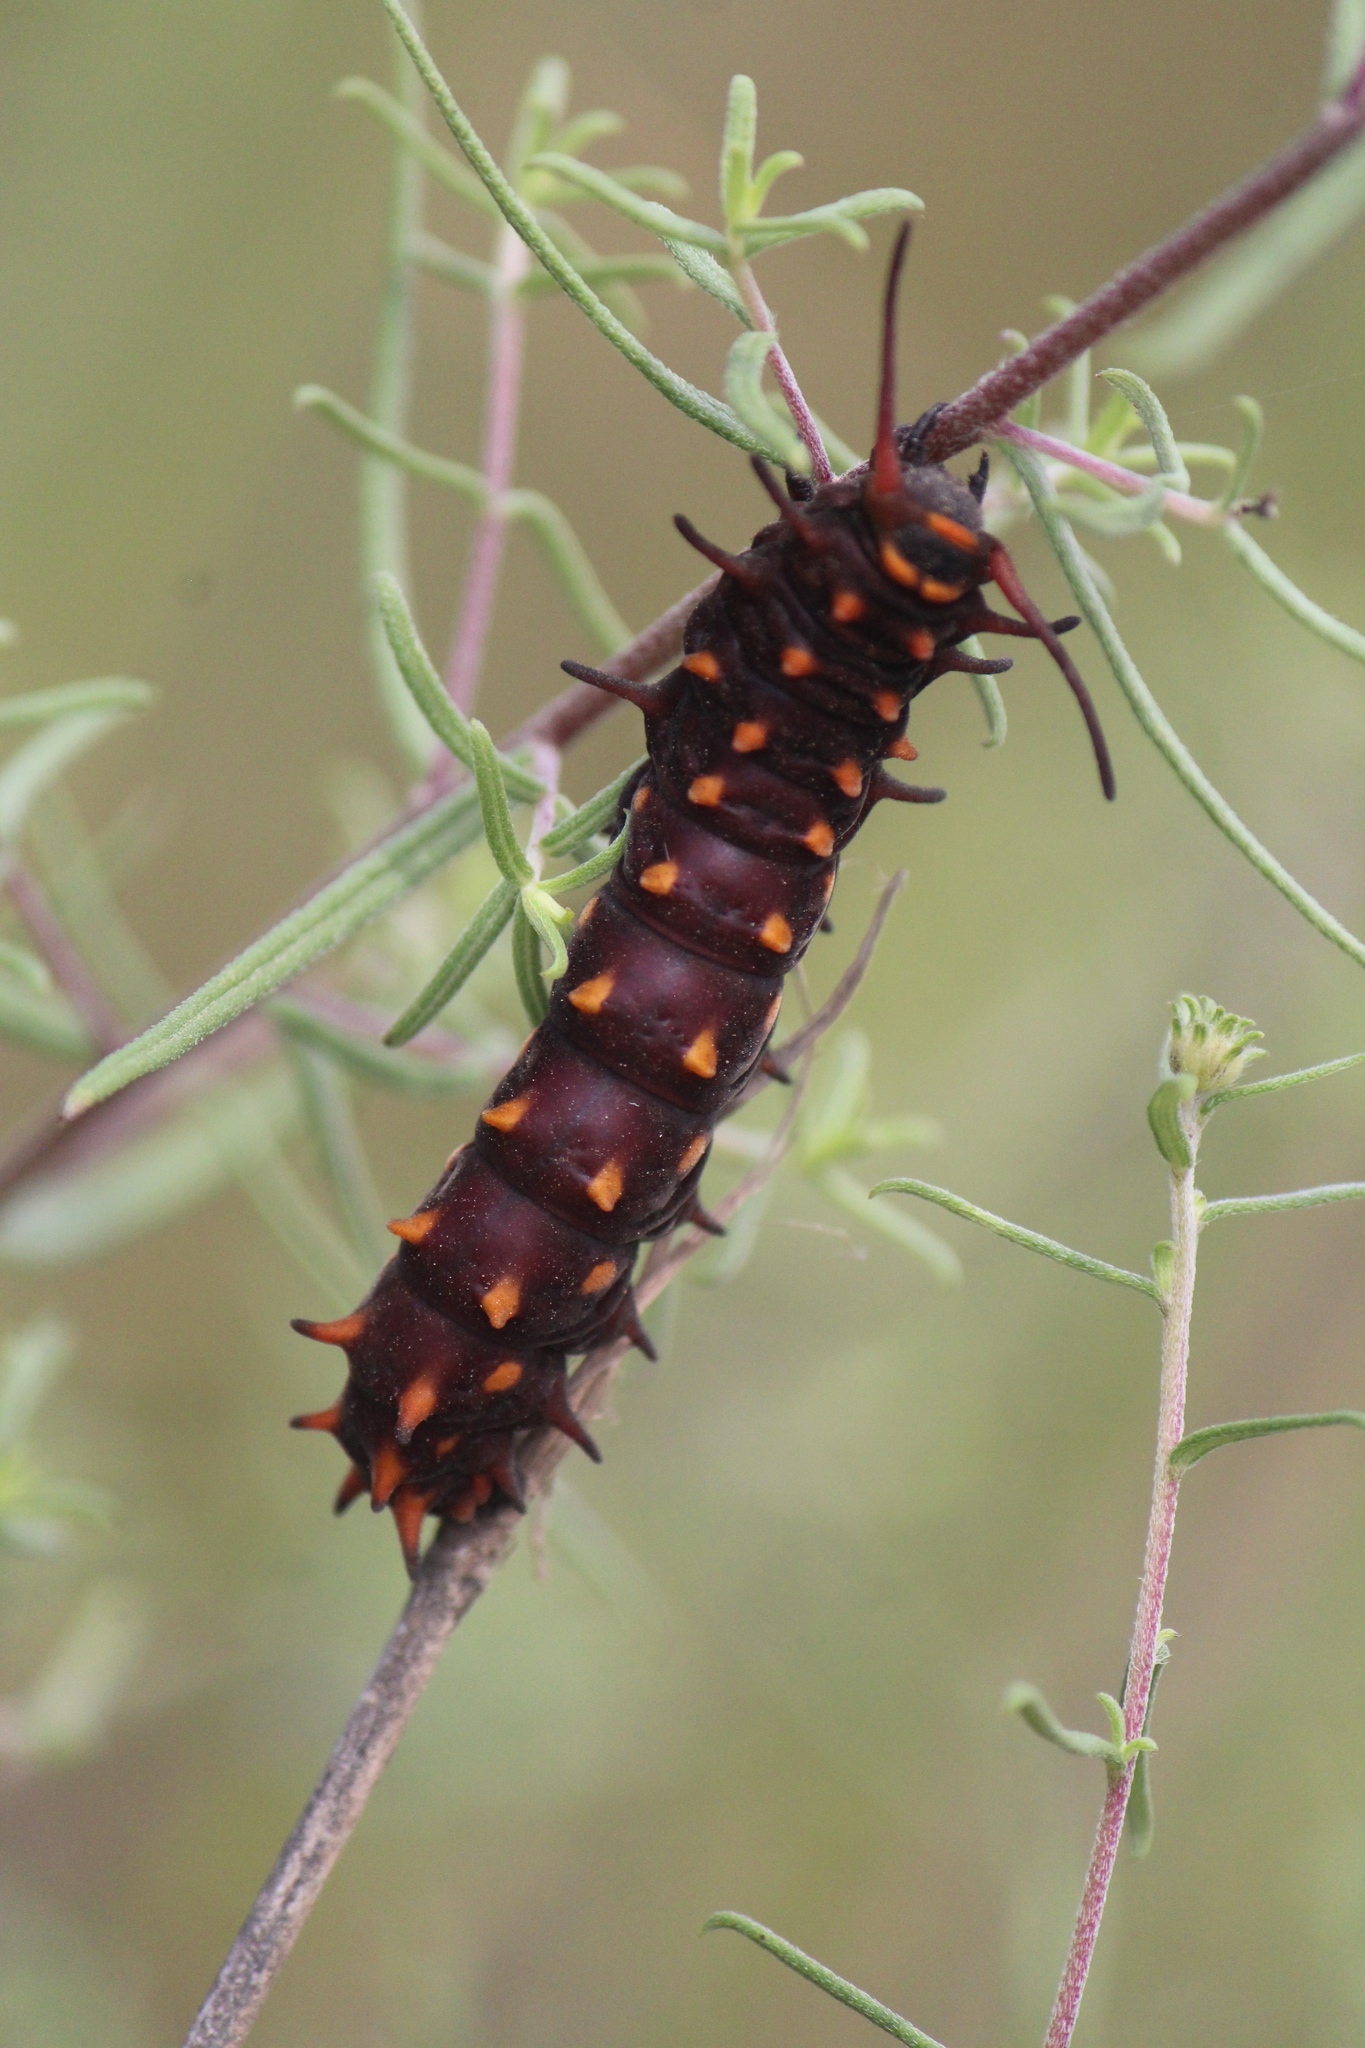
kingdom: Animalia
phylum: Arthropoda
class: Insecta
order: Lepidoptera
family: Papilionidae
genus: Battus
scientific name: Battus philenor
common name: Pipevine swallowtail
